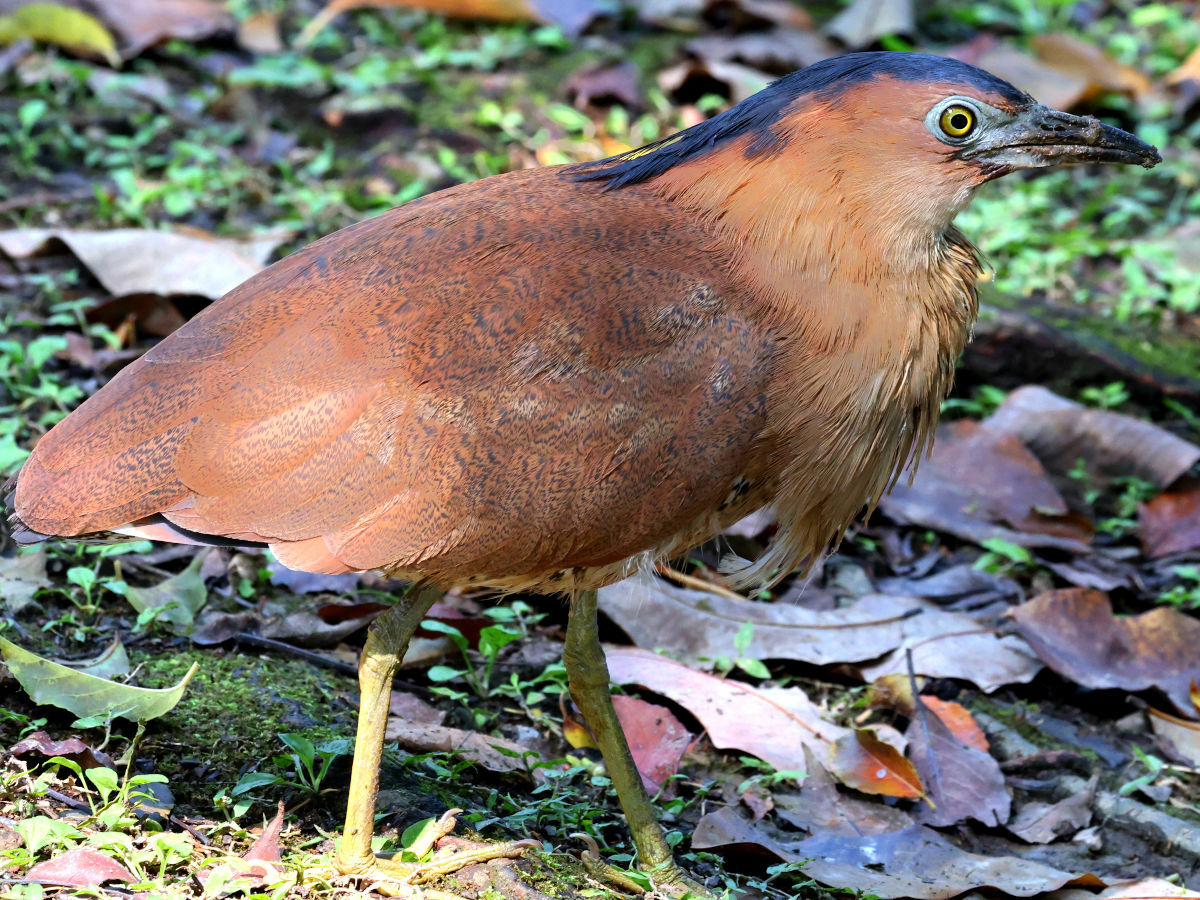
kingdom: Animalia
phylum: Chordata
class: Aves
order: Pelecaniformes
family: Ardeidae
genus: Gorsachius
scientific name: Gorsachius melanolophus
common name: Malayan night heron
